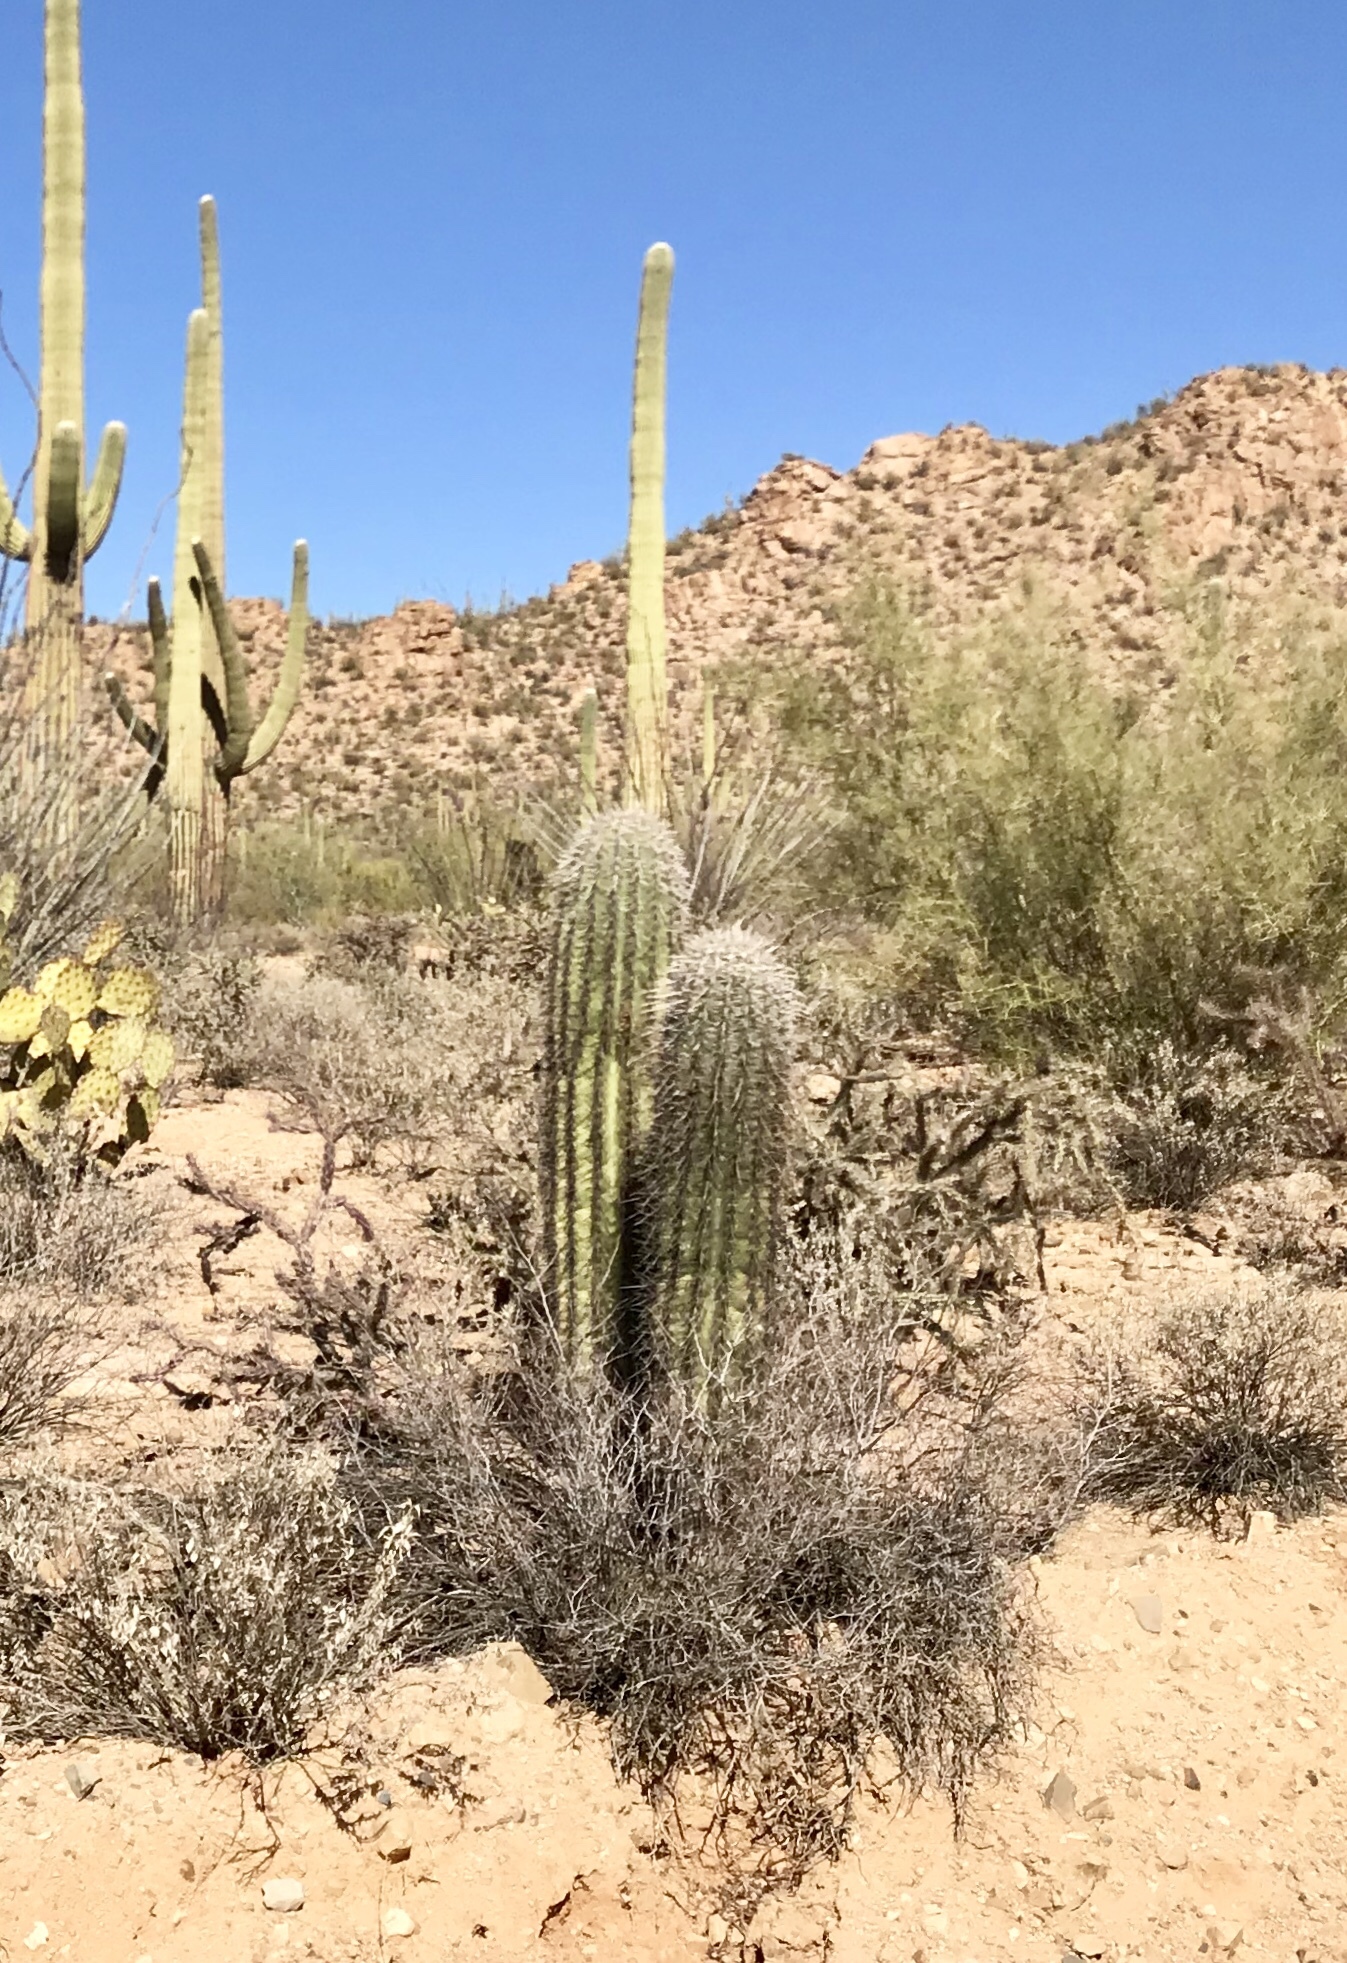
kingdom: Plantae
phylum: Tracheophyta
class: Magnoliopsida
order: Caryophyllales
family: Cactaceae
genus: Carnegiea
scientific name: Carnegiea gigantea
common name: Saguaro
